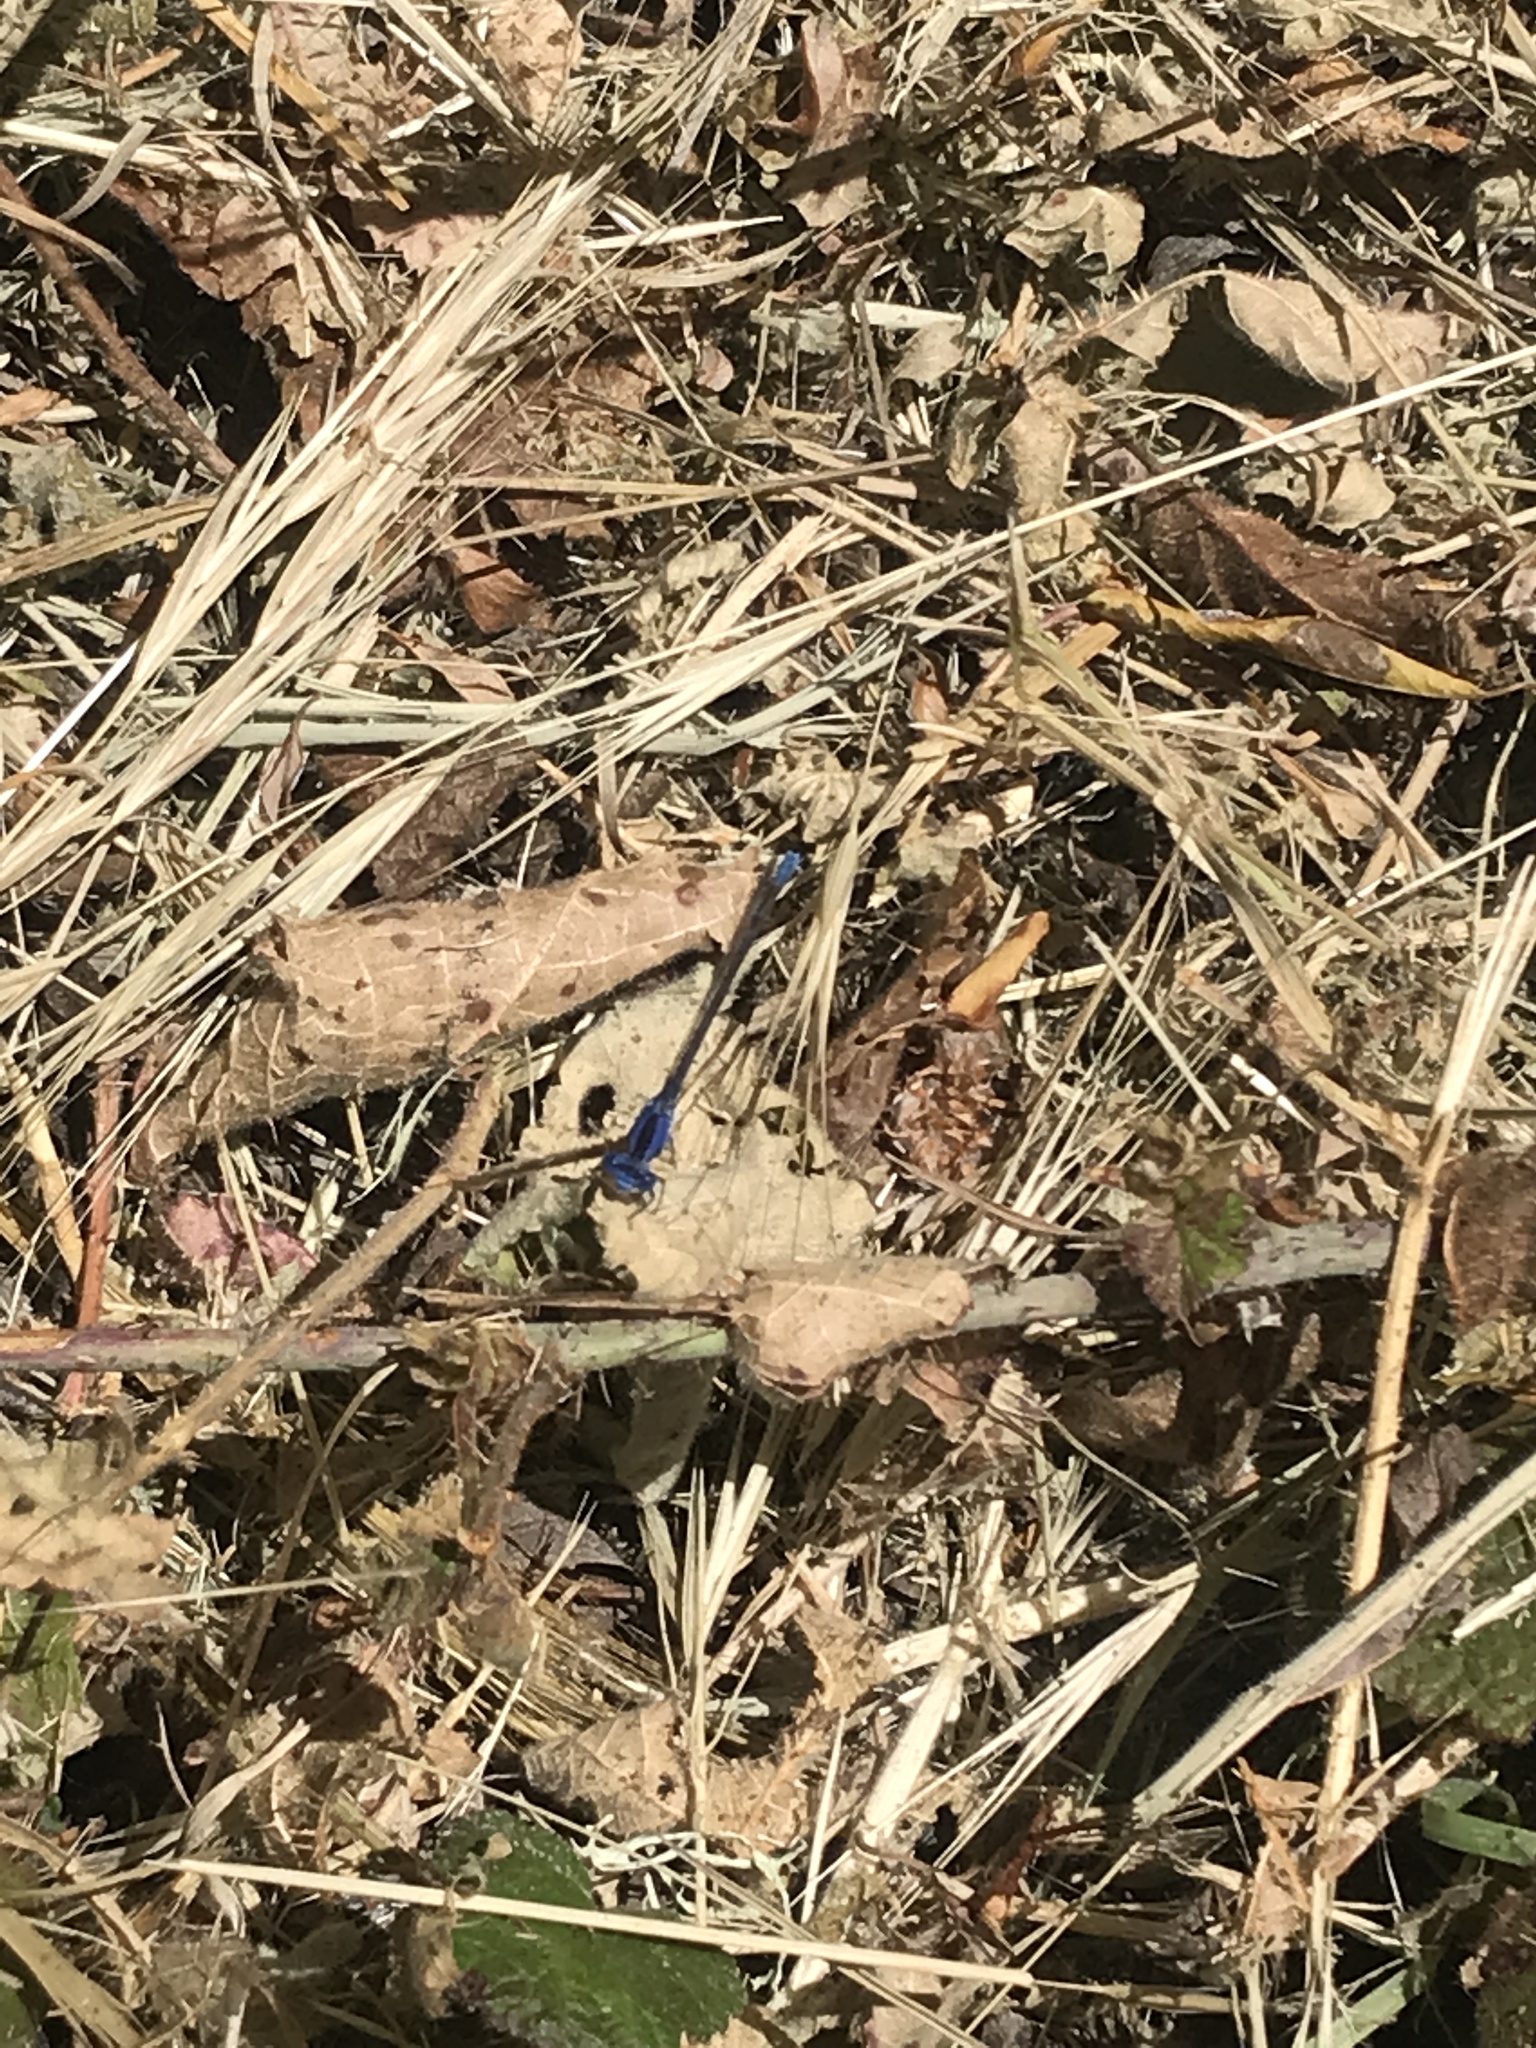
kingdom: Animalia
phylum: Arthropoda
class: Insecta
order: Odonata
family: Coenagrionidae
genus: Argia
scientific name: Argia vivida
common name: Vivid dancer
